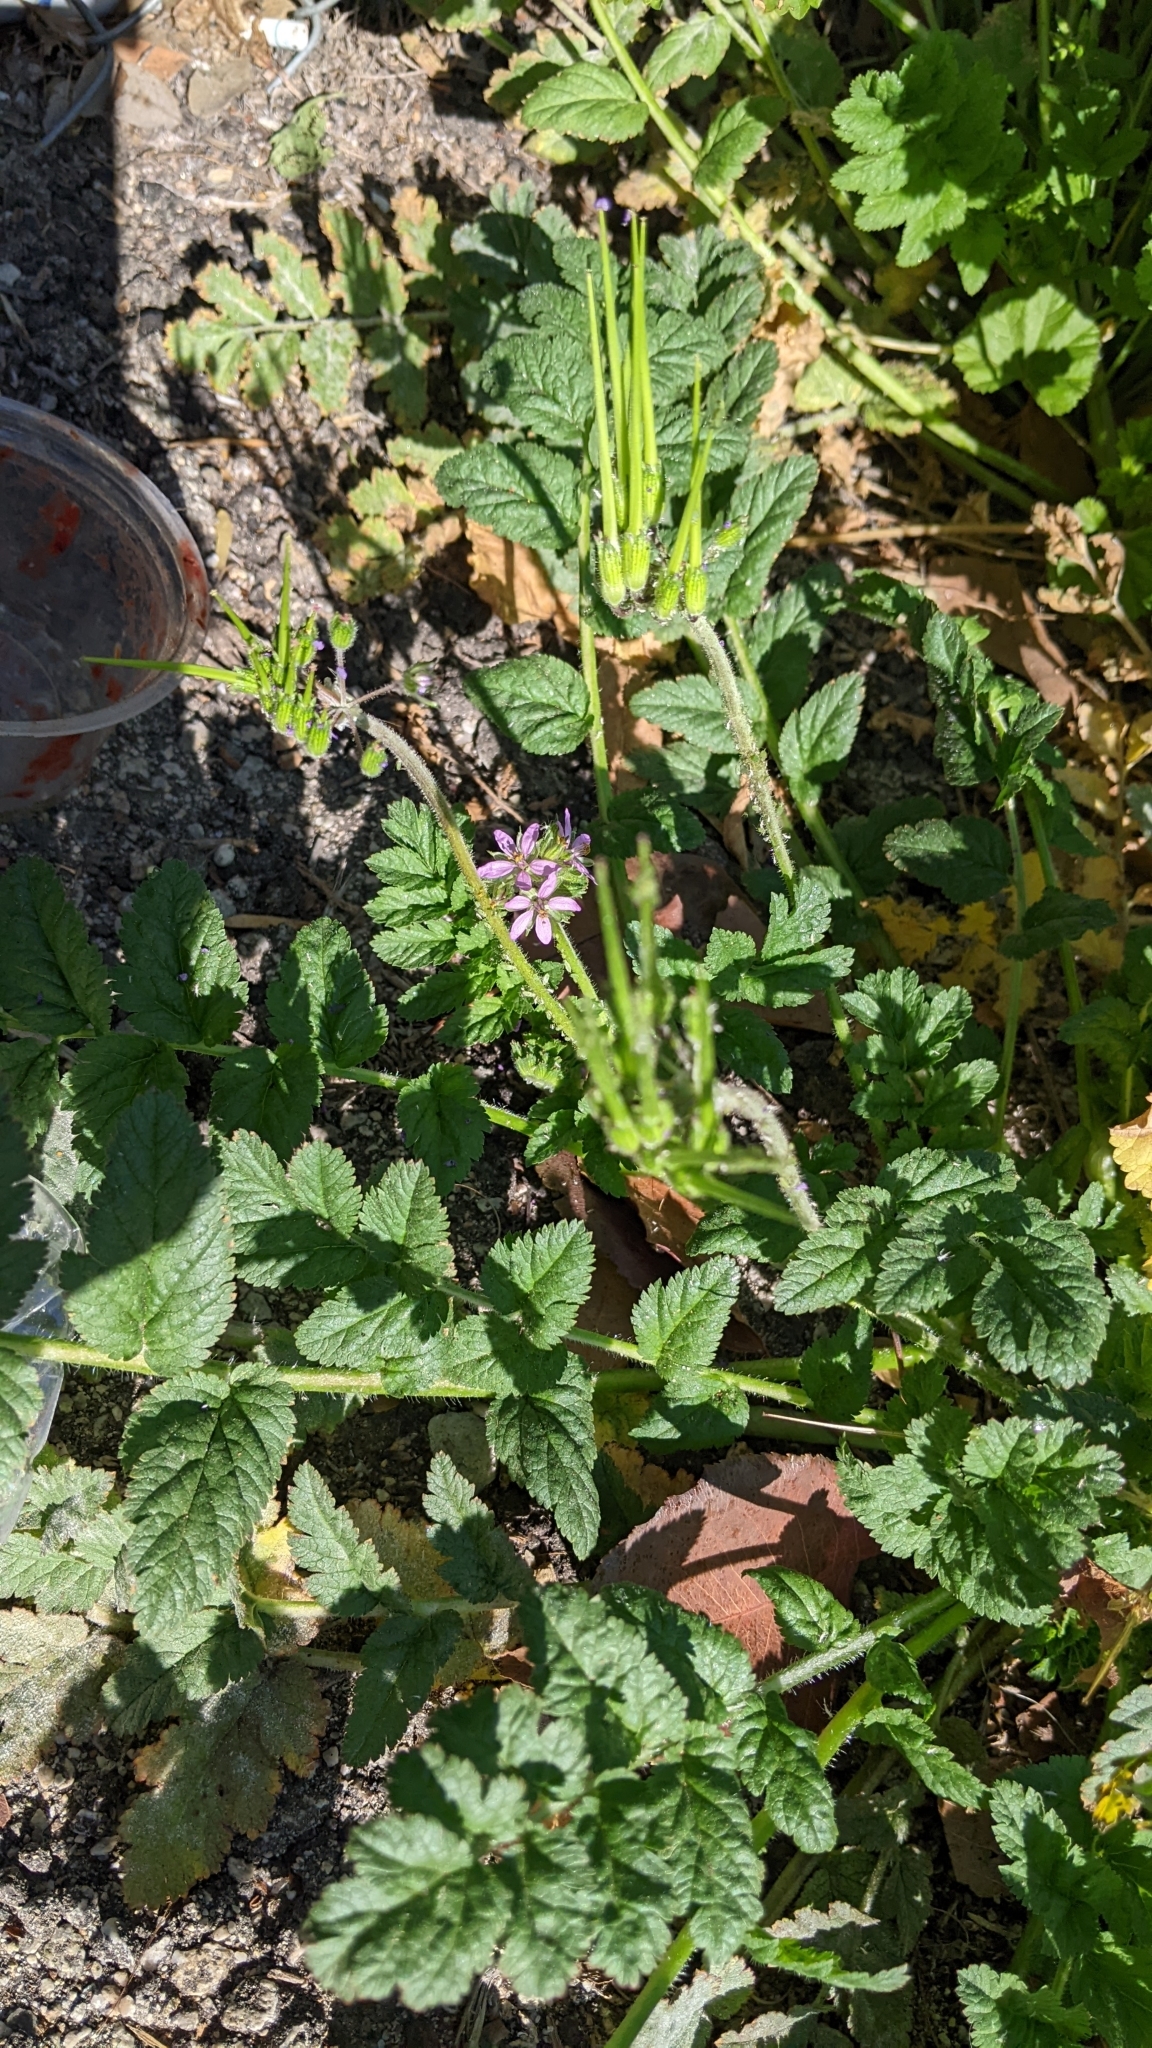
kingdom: Plantae
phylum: Tracheophyta
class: Magnoliopsida
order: Geraniales
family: Geraniaceae
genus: Erodium
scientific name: Erodium moschatum
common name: Musk stork's-bill
